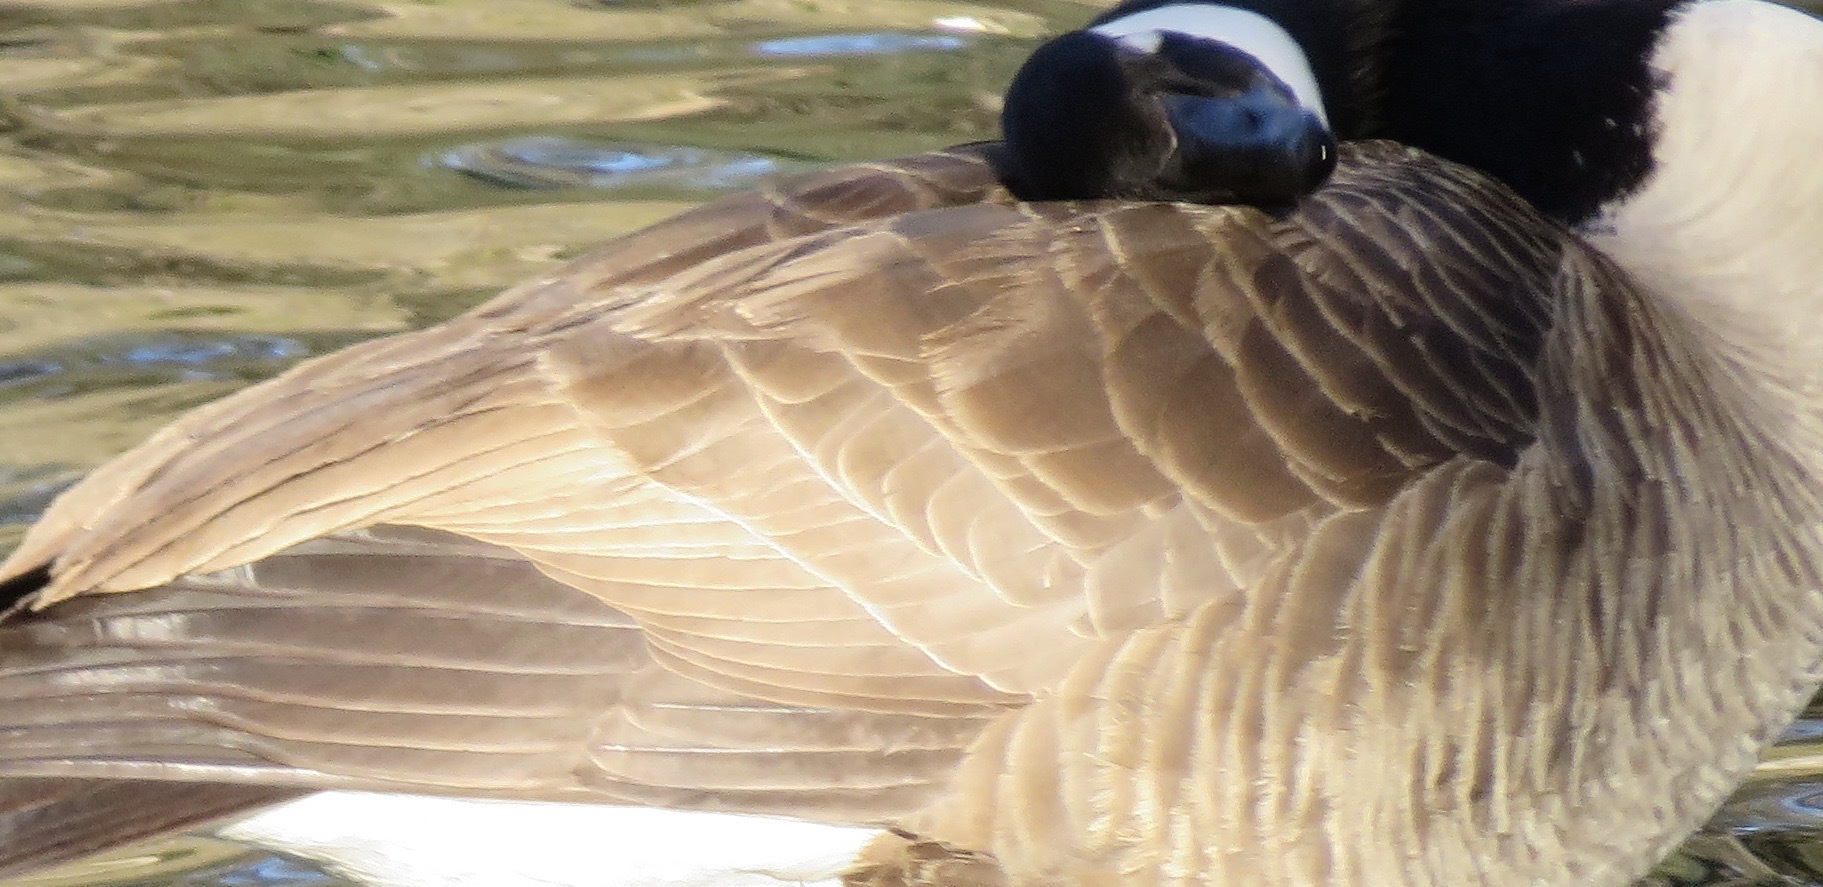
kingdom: Animalia
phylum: Chordata
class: Aves
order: Anseriformes
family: Anatidae
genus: Branta
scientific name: Branta canadensis
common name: Canada goose
